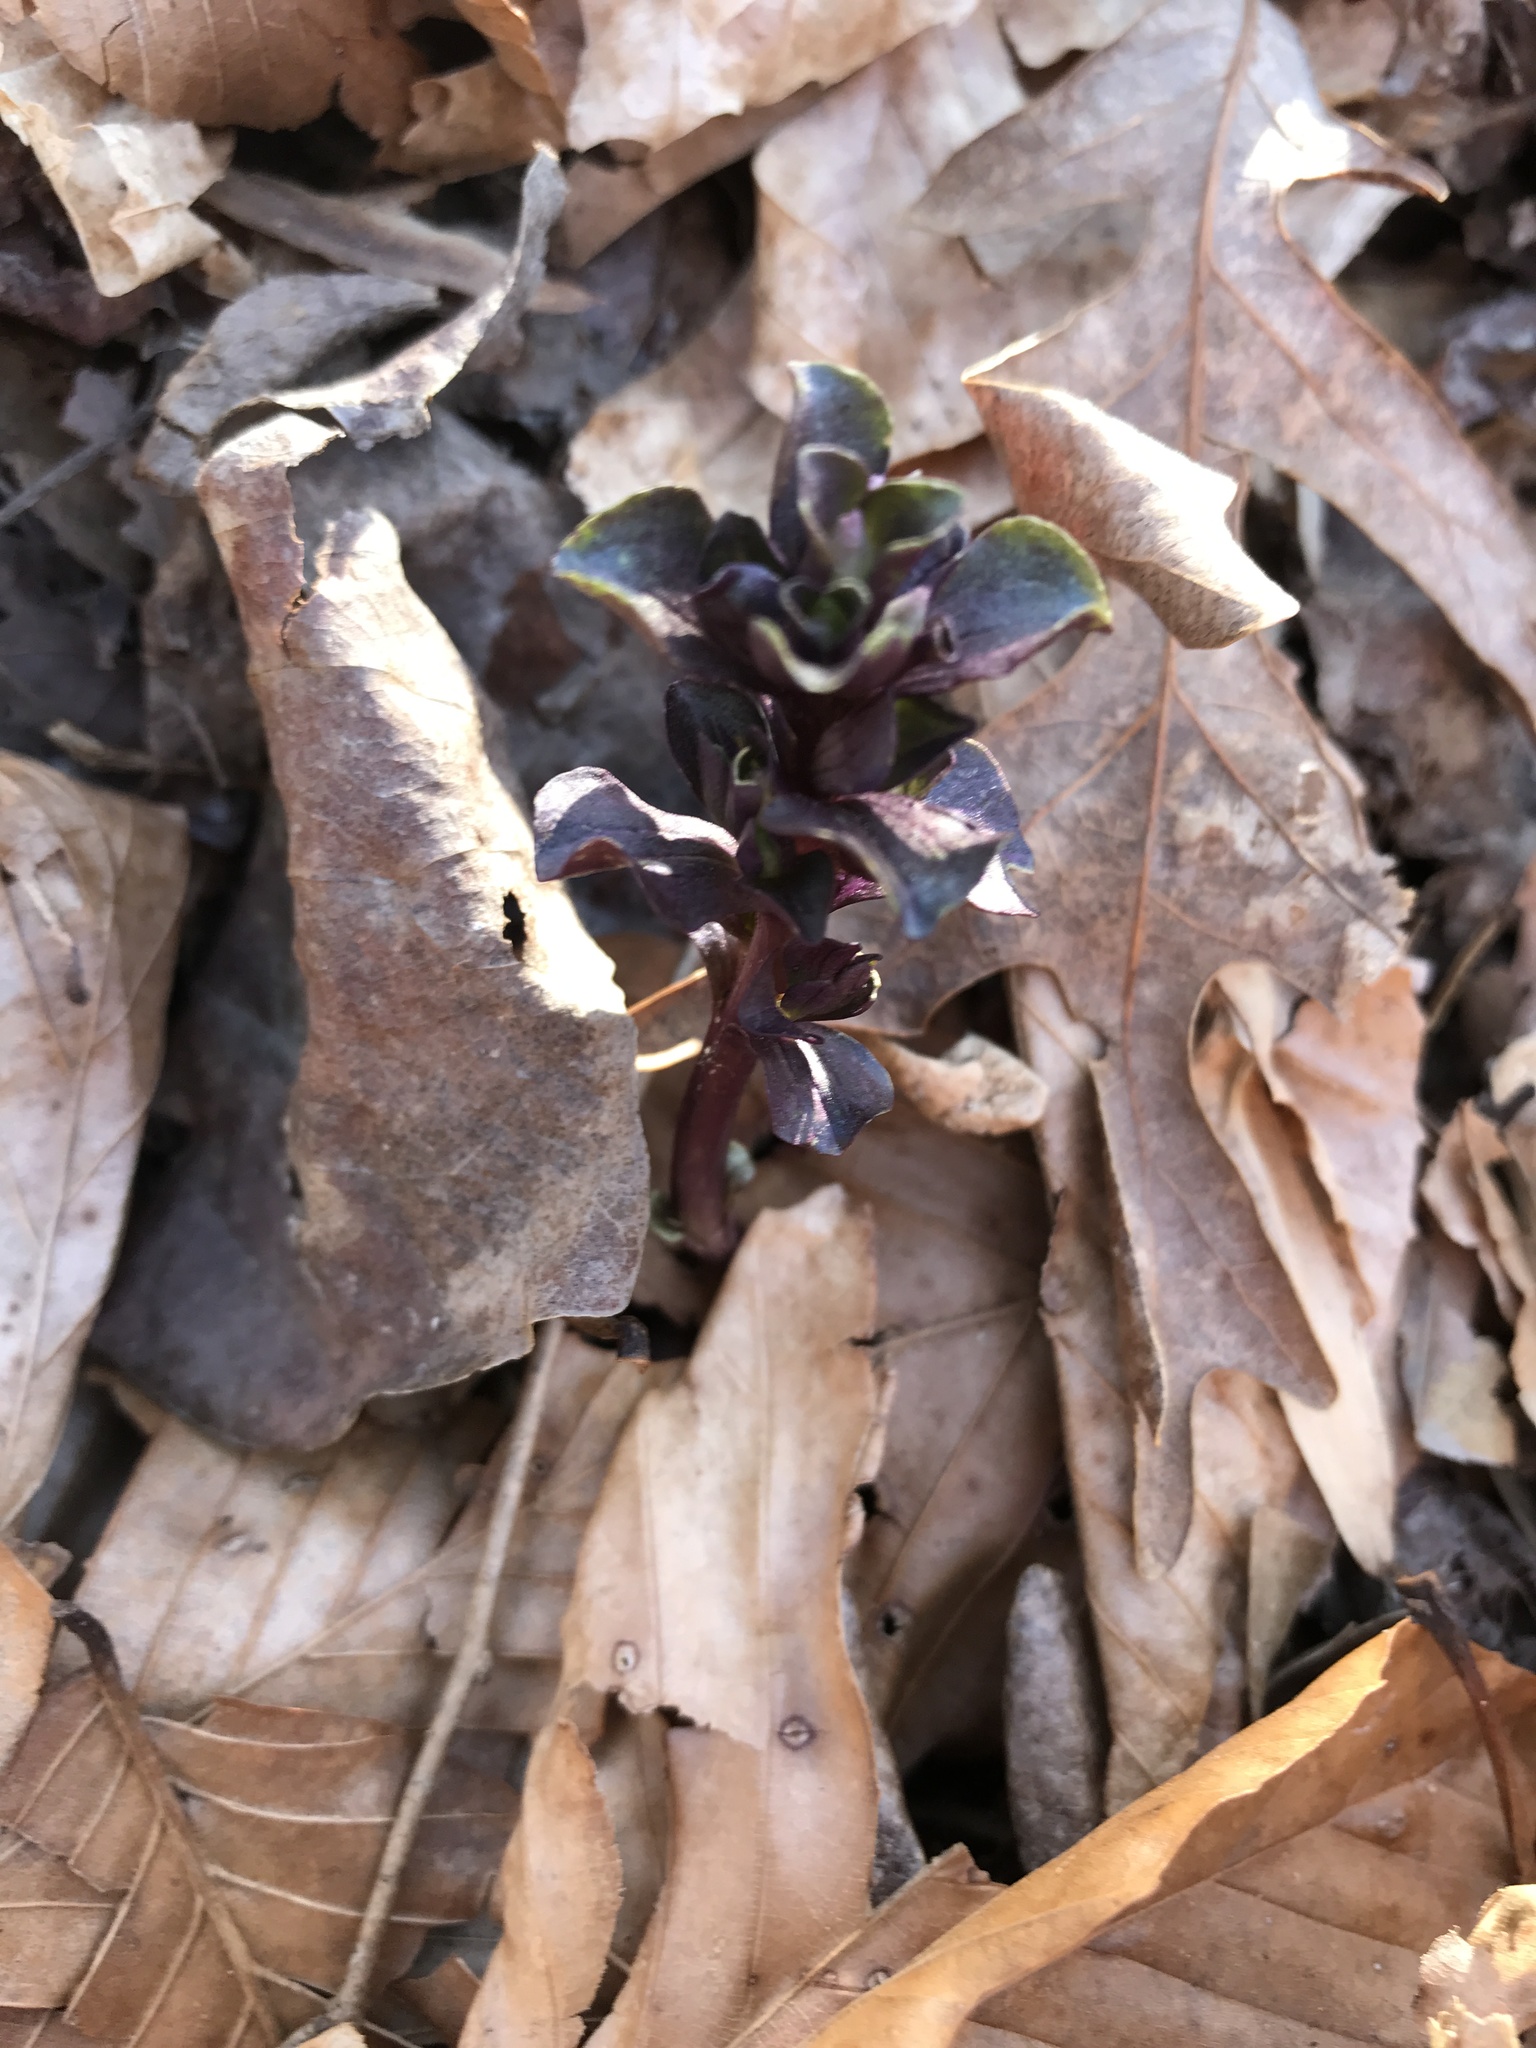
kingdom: Plantae
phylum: Tracheophyta
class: Magnoliopsida
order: Gentianales
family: Gentianaceae
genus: Obolaria
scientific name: Obolaria virginica
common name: Pennywort
